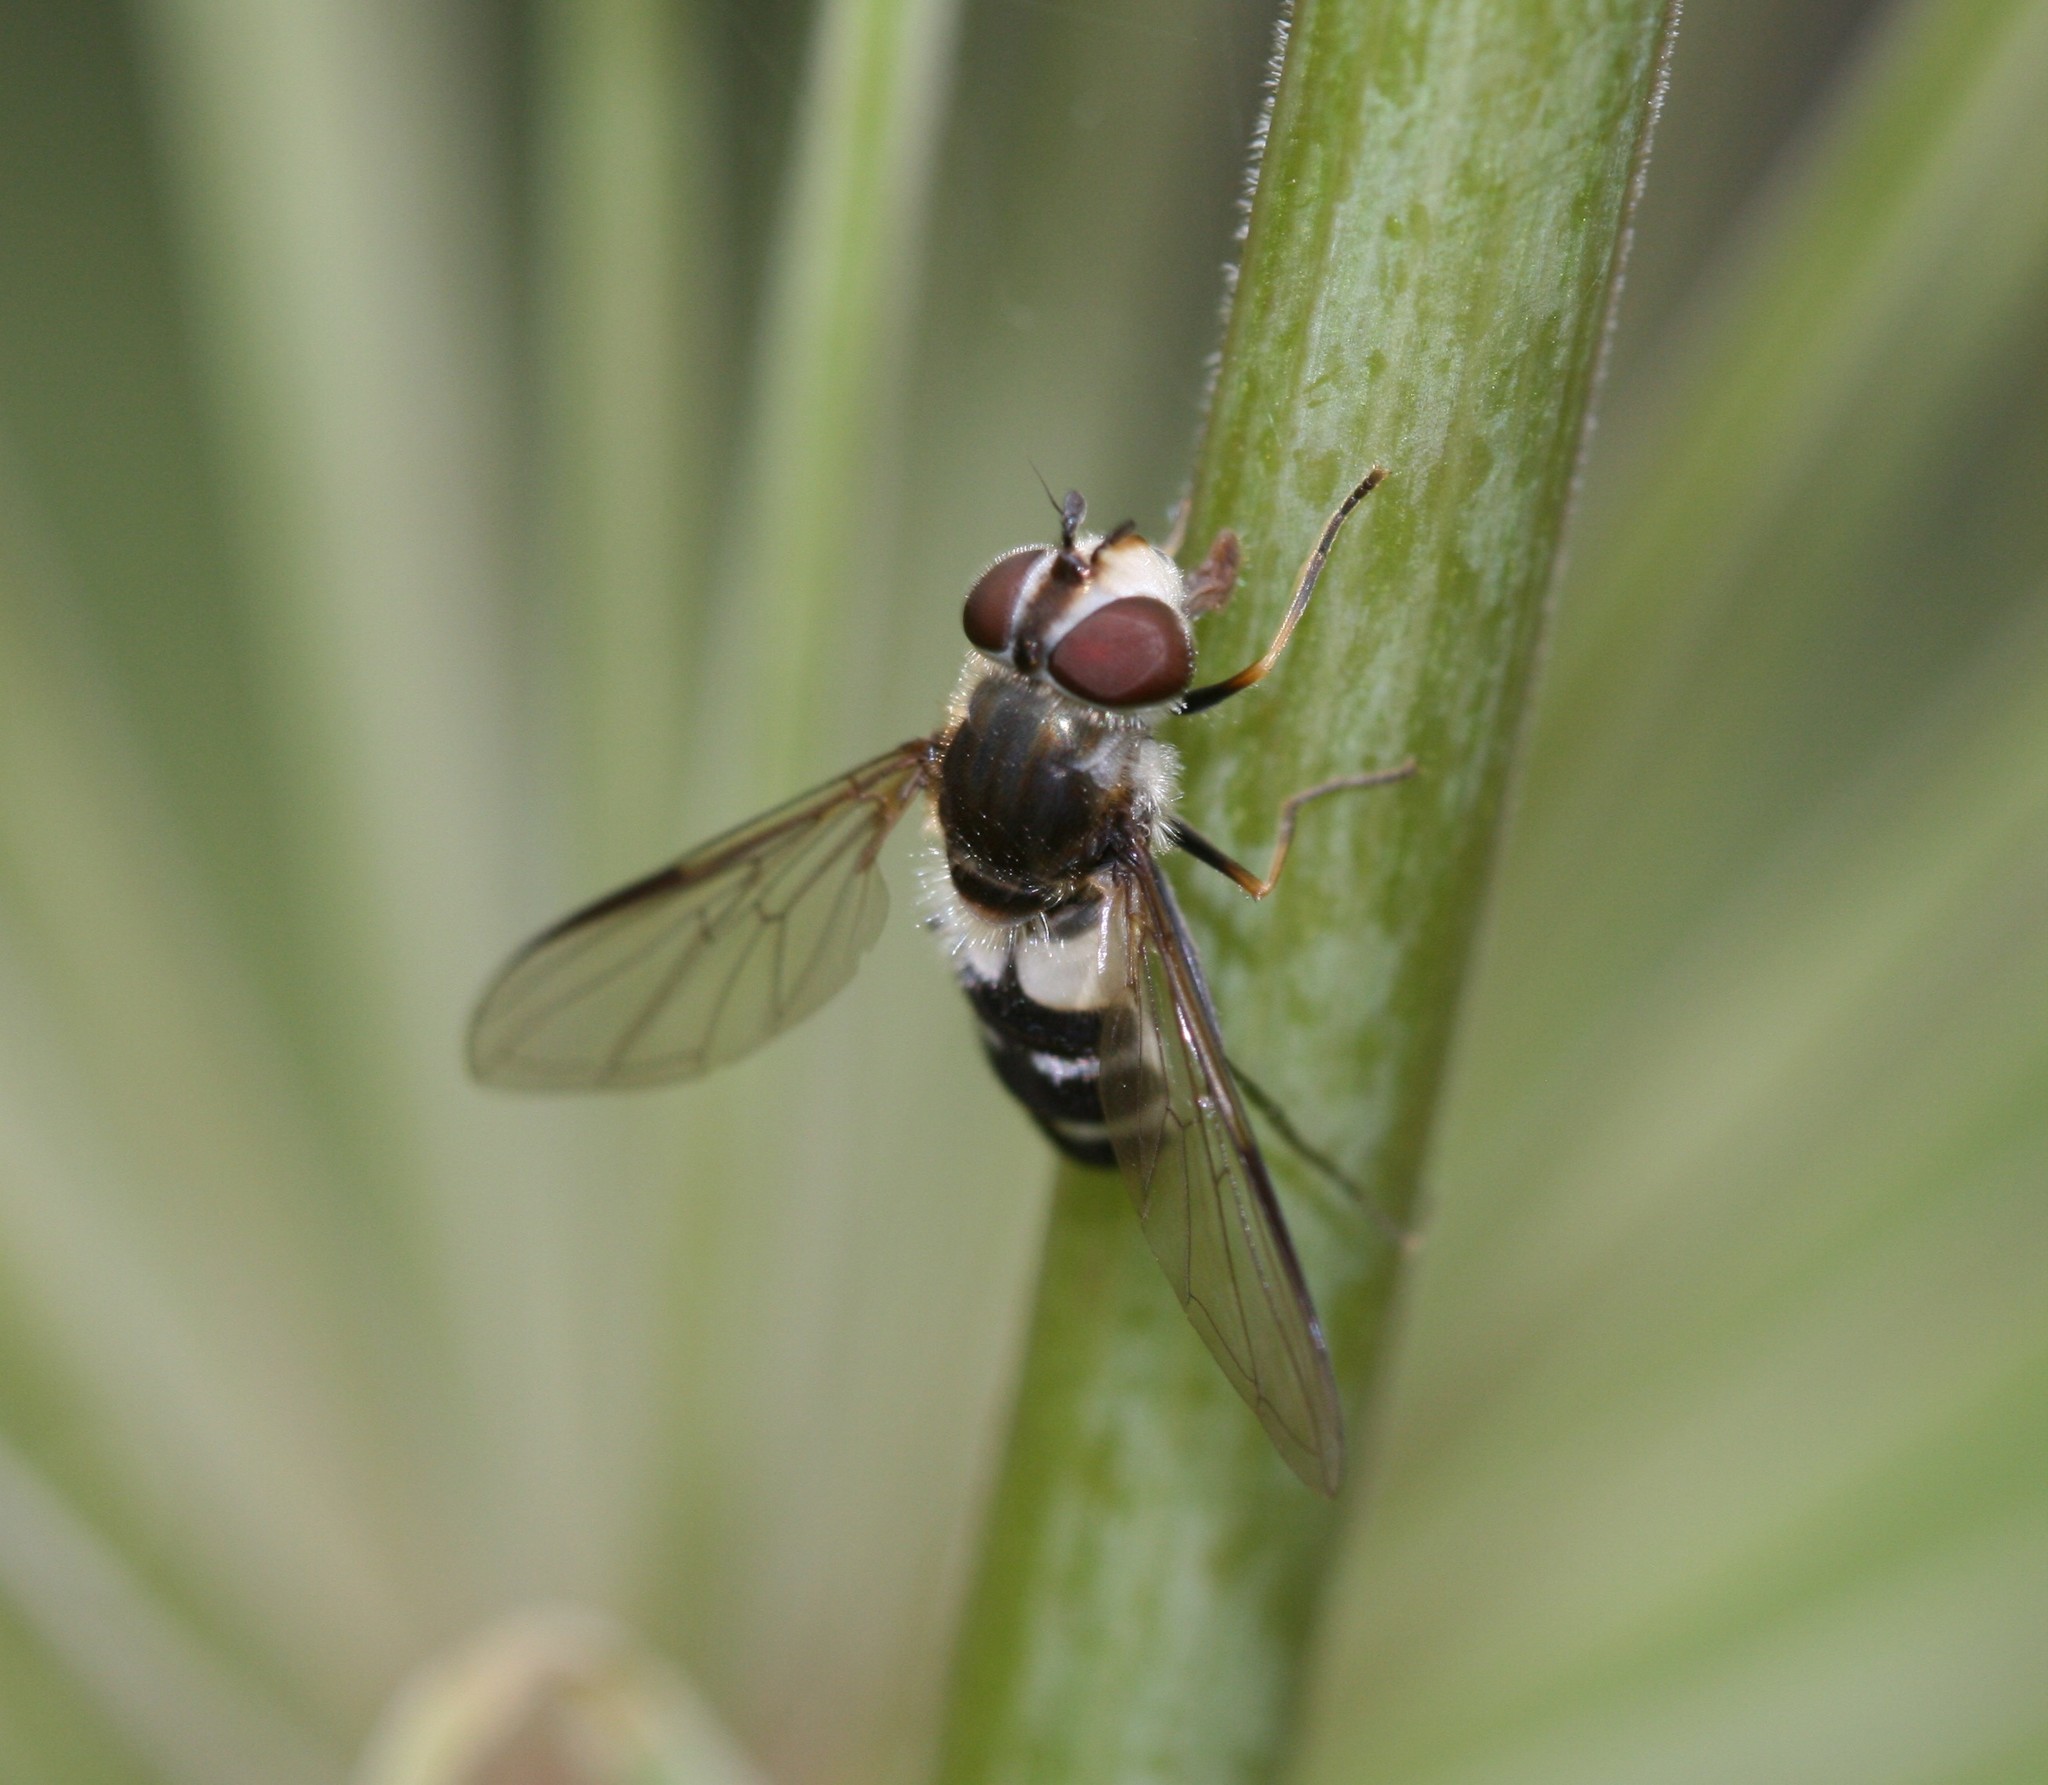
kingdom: Animalia
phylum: Arthropoda
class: Insecta
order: Diptera
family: Syrphidae
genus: Leucozona
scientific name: Leucozona laternaria
